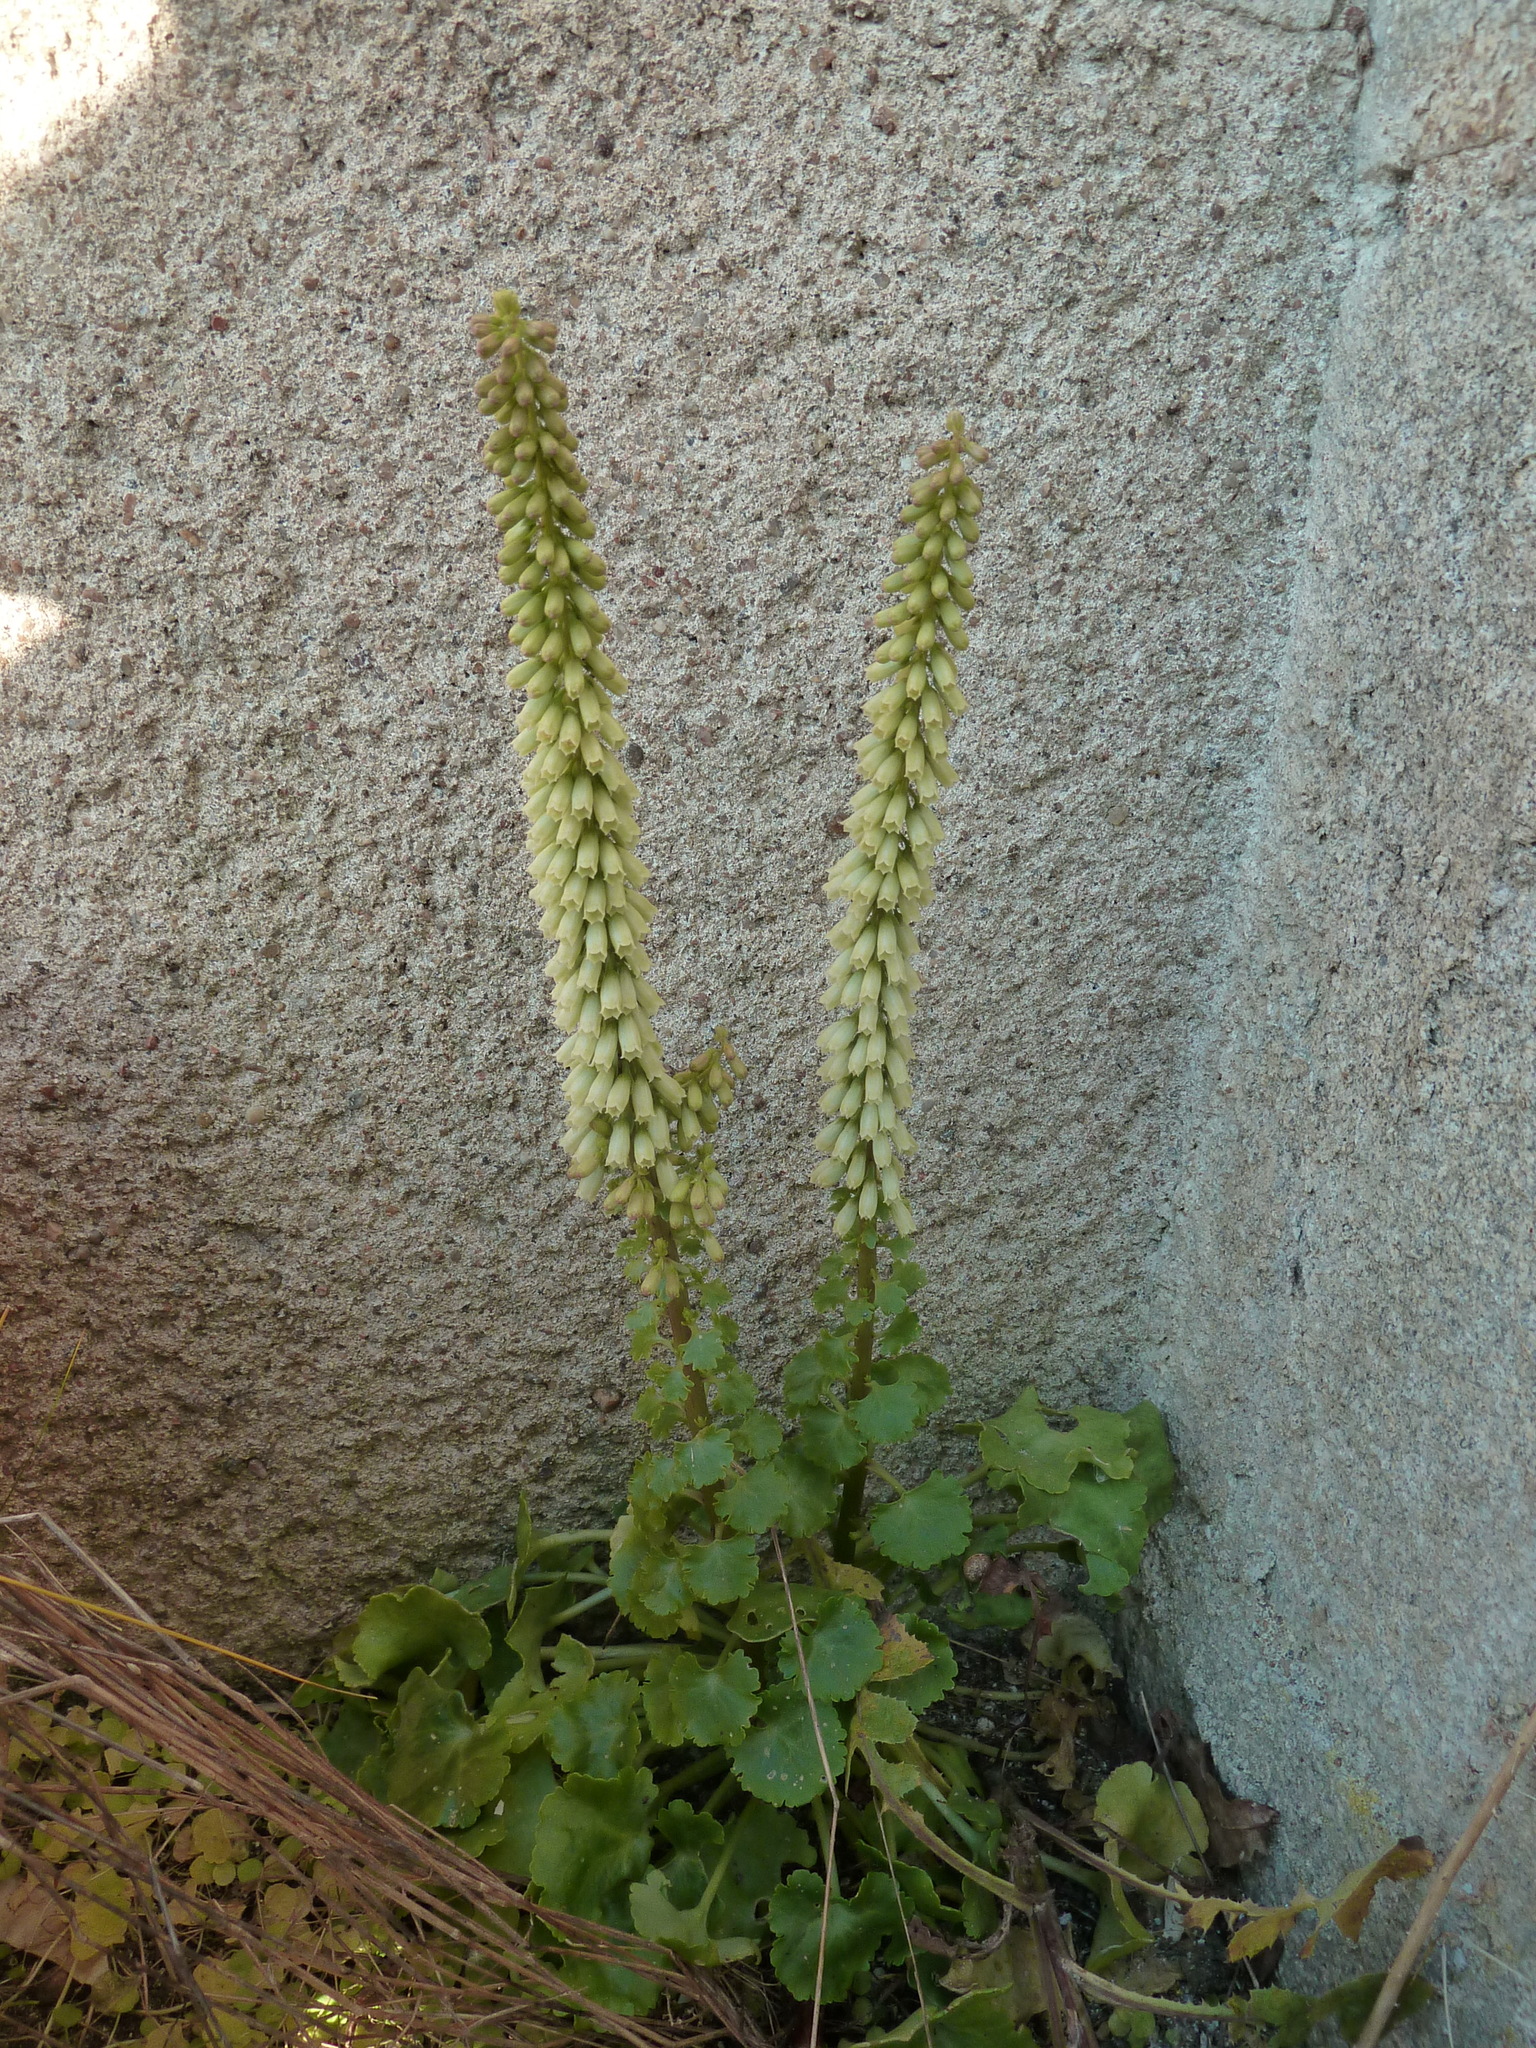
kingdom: Plantae
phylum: Tracheophyta
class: Magnoliopsida
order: Saxifragales
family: Crassulaceae
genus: Umbilicus
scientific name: Umbilicus rupestris
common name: Navelwort
